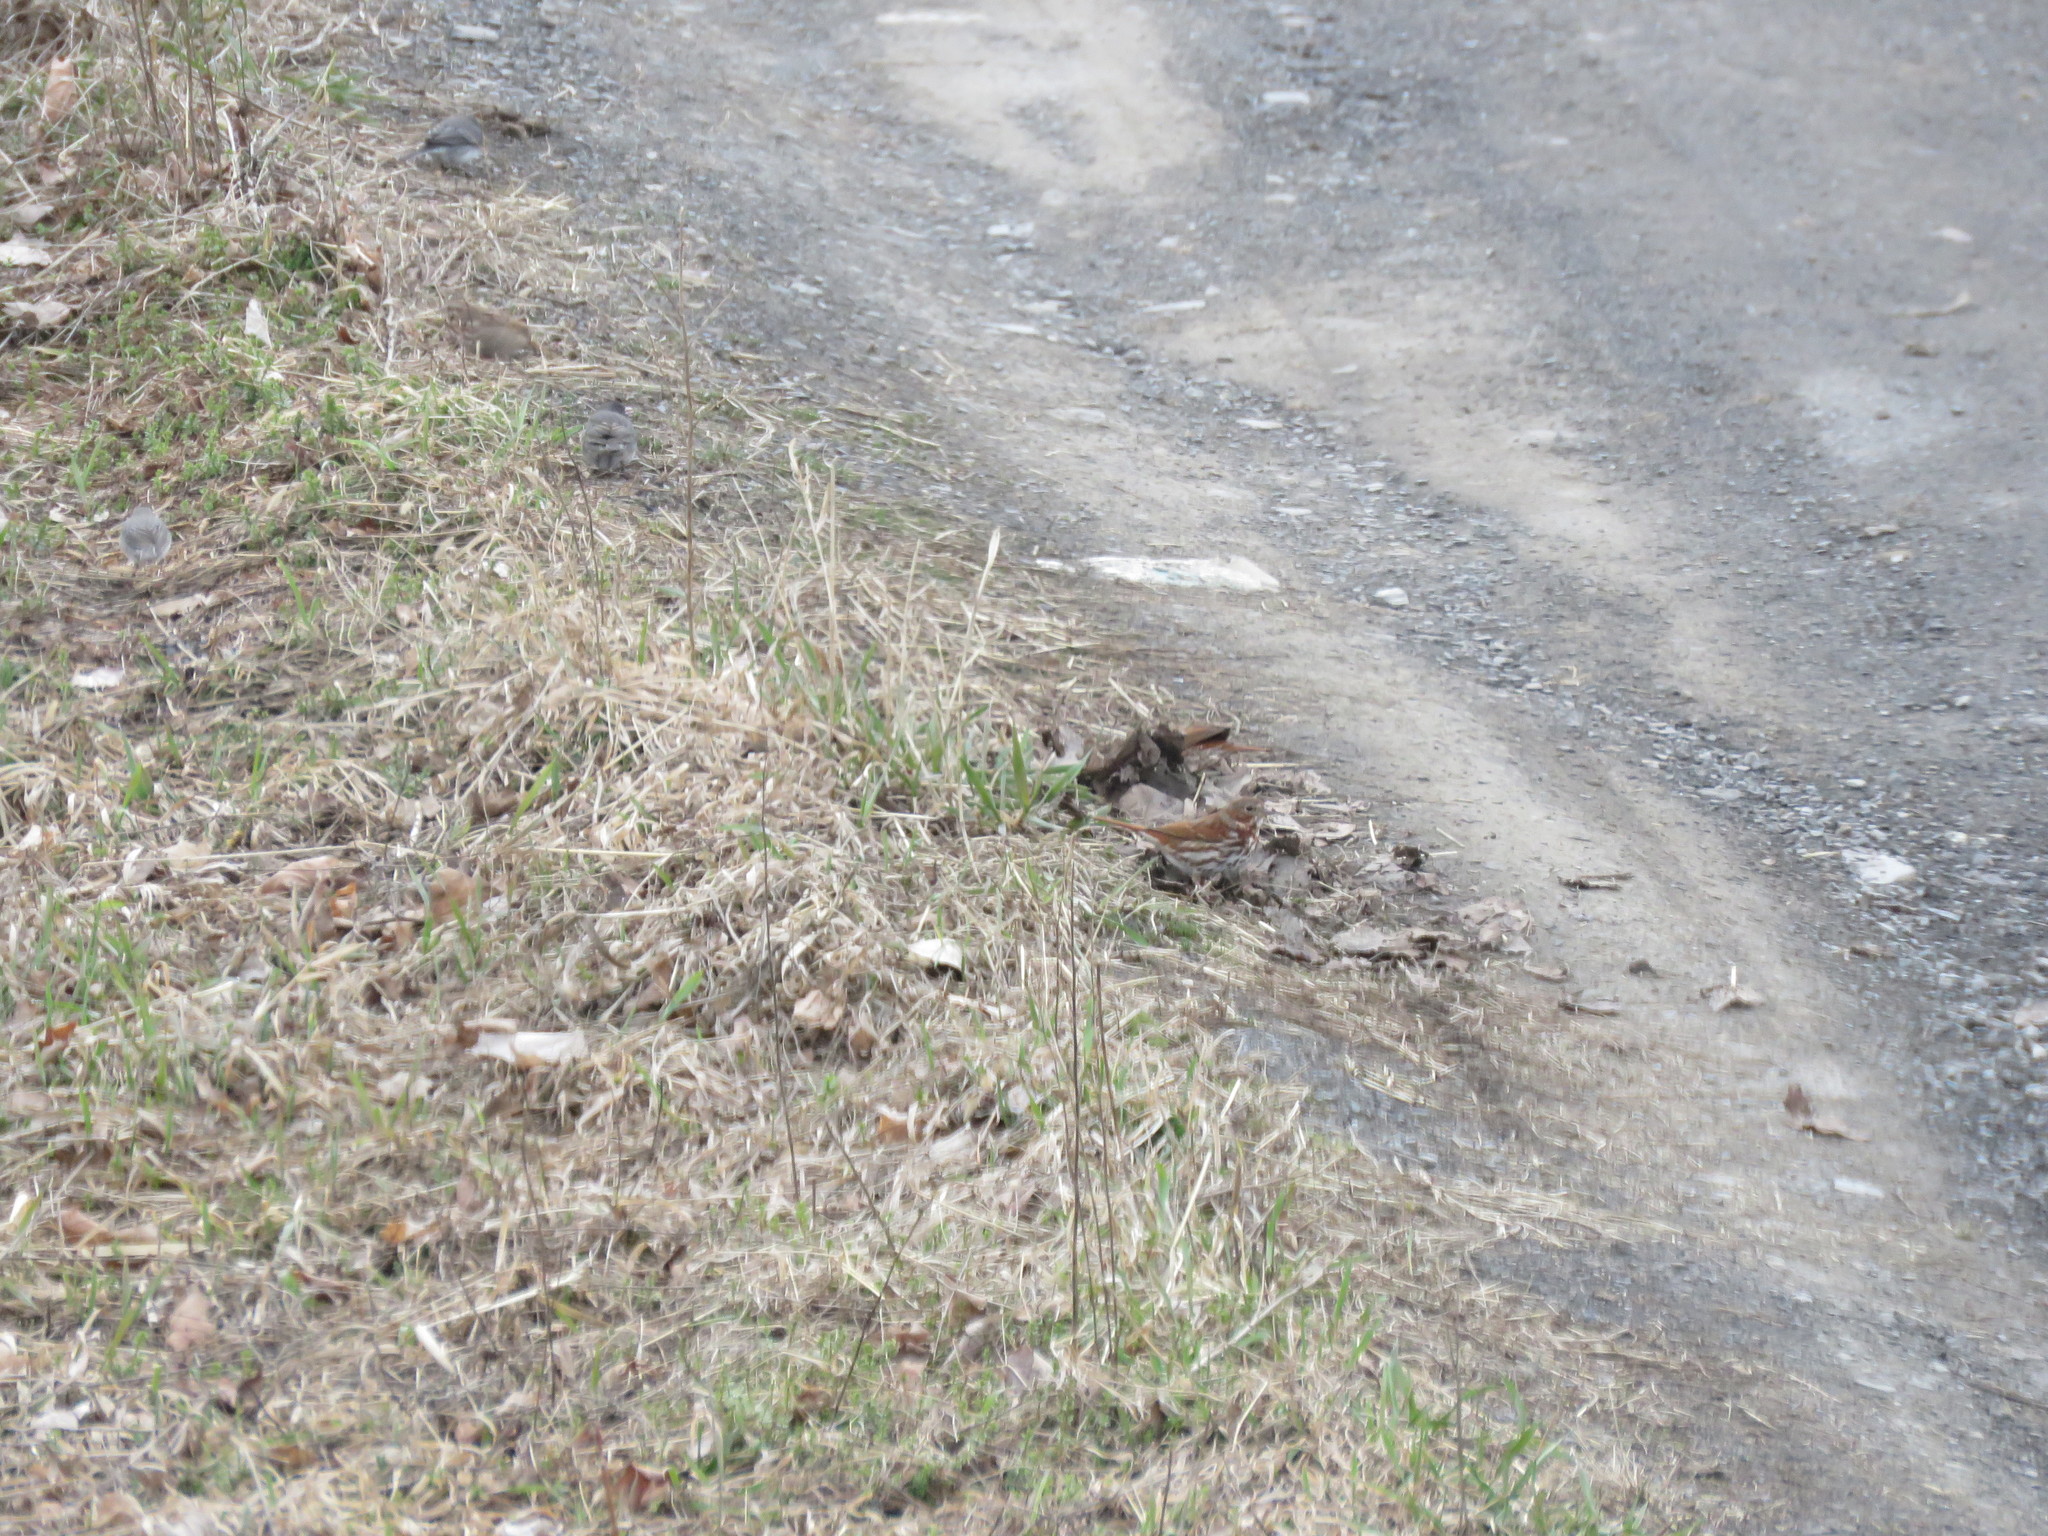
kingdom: Animalia
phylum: Chordata
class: Aves
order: Passeriformes
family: Passerellidae
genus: Passerella
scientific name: Passerella iliaca
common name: Fox sparrow
